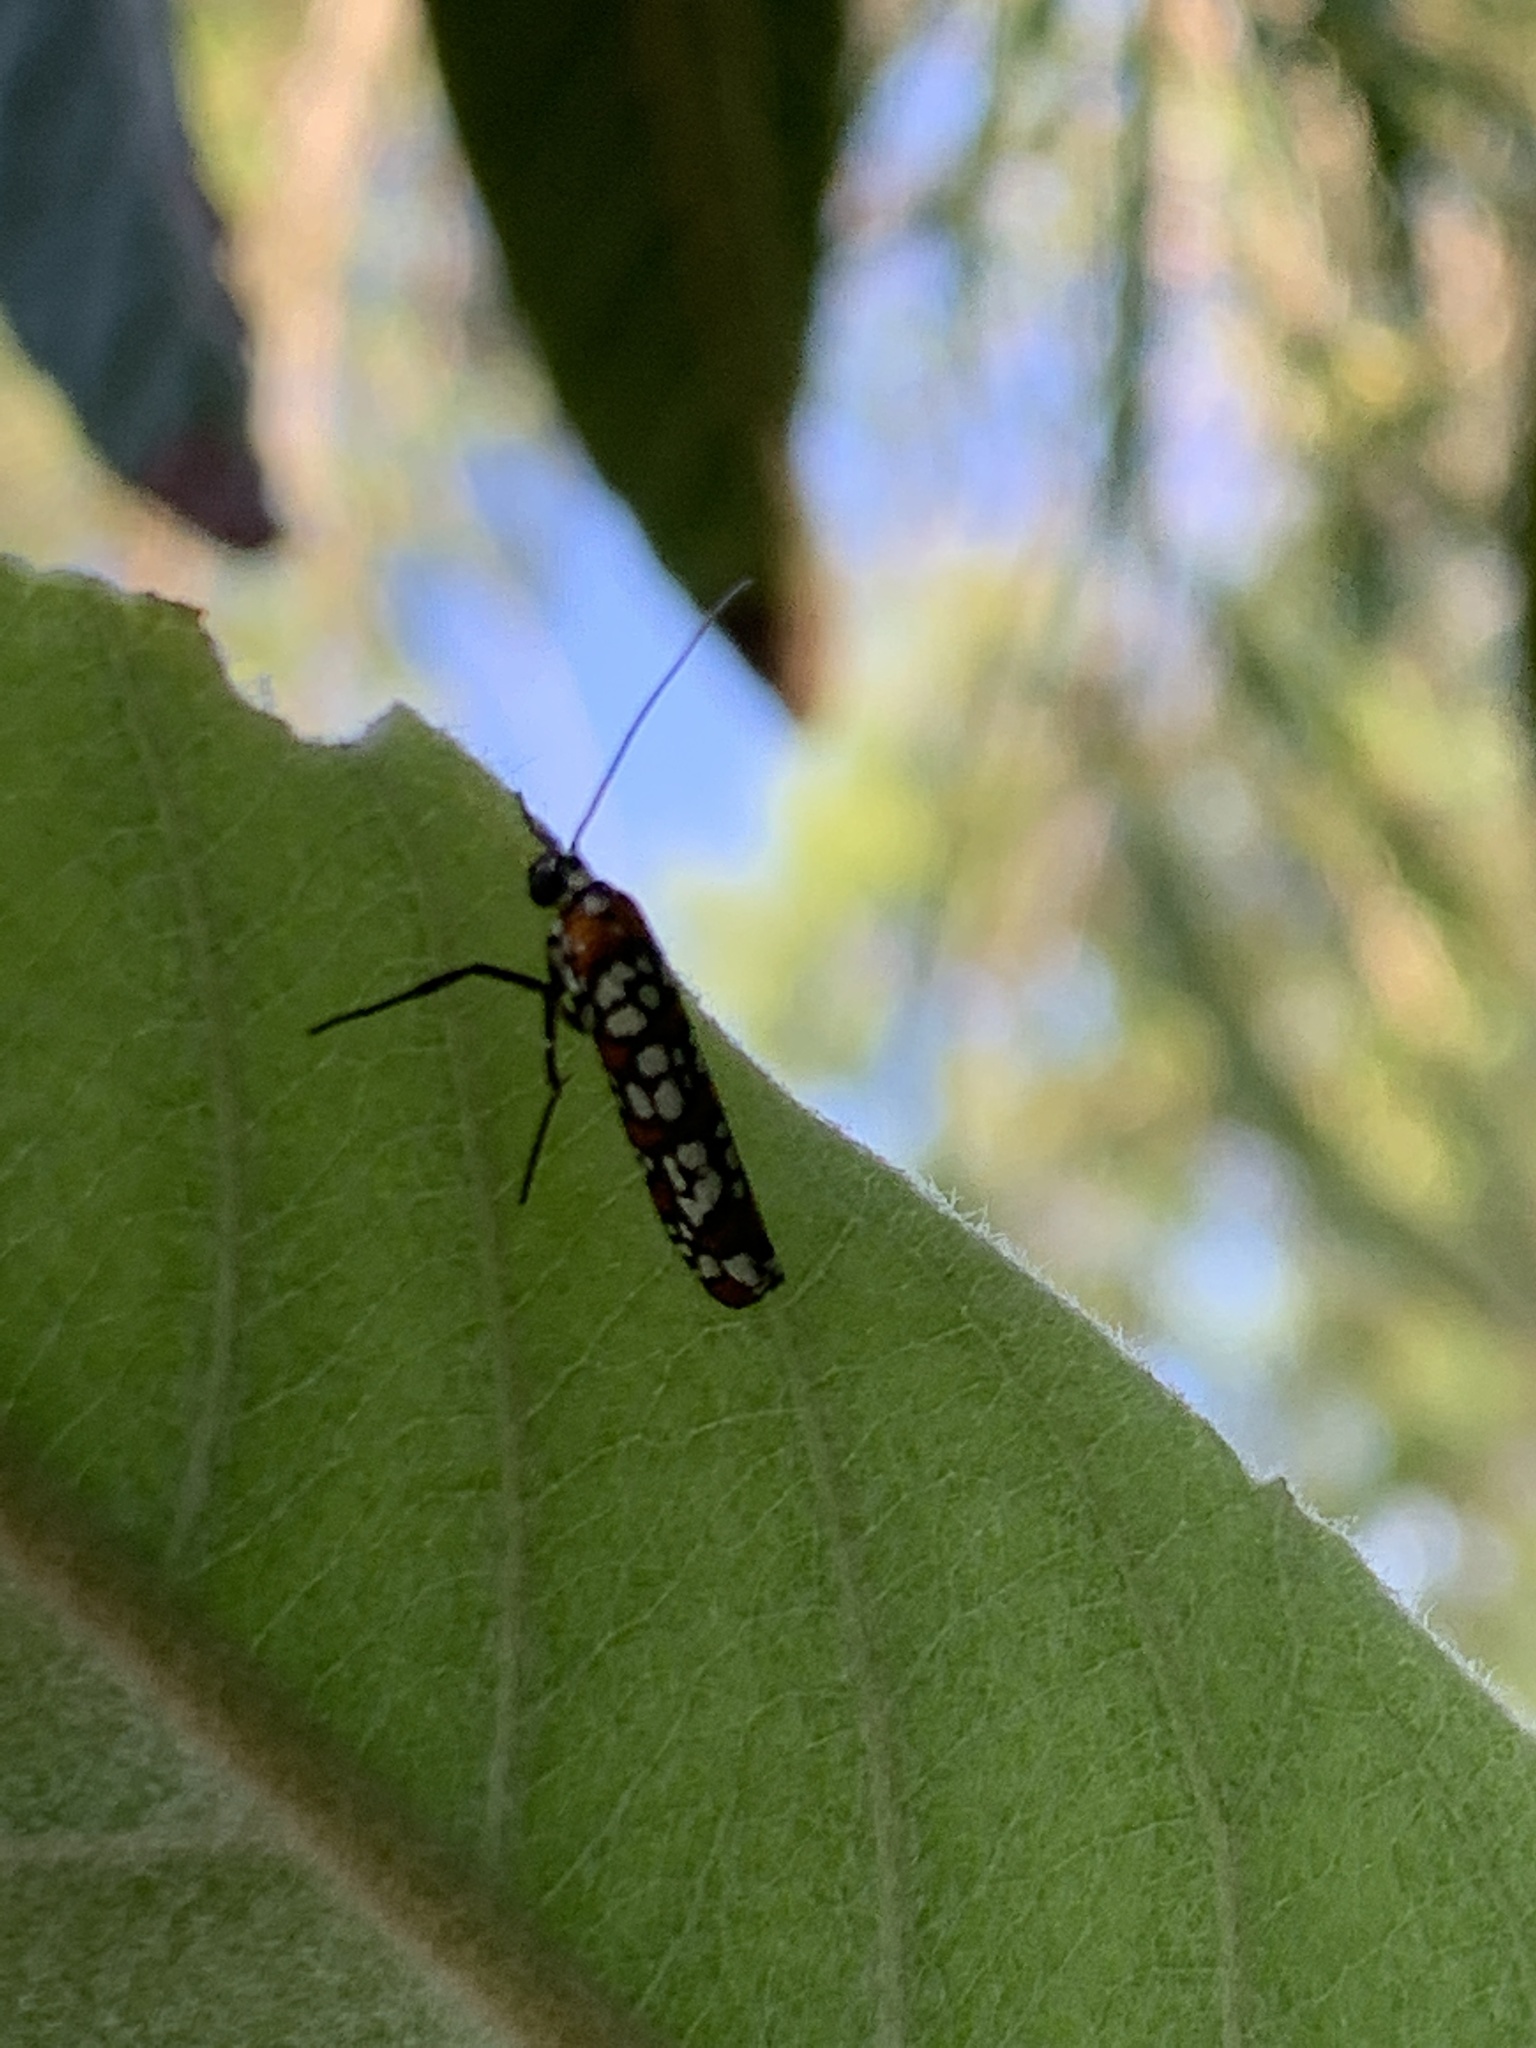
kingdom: Animalia
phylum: Arthropoda
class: Insecta
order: Lepidoptera
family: Attevidae
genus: Atteva
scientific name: Atteva punctella
